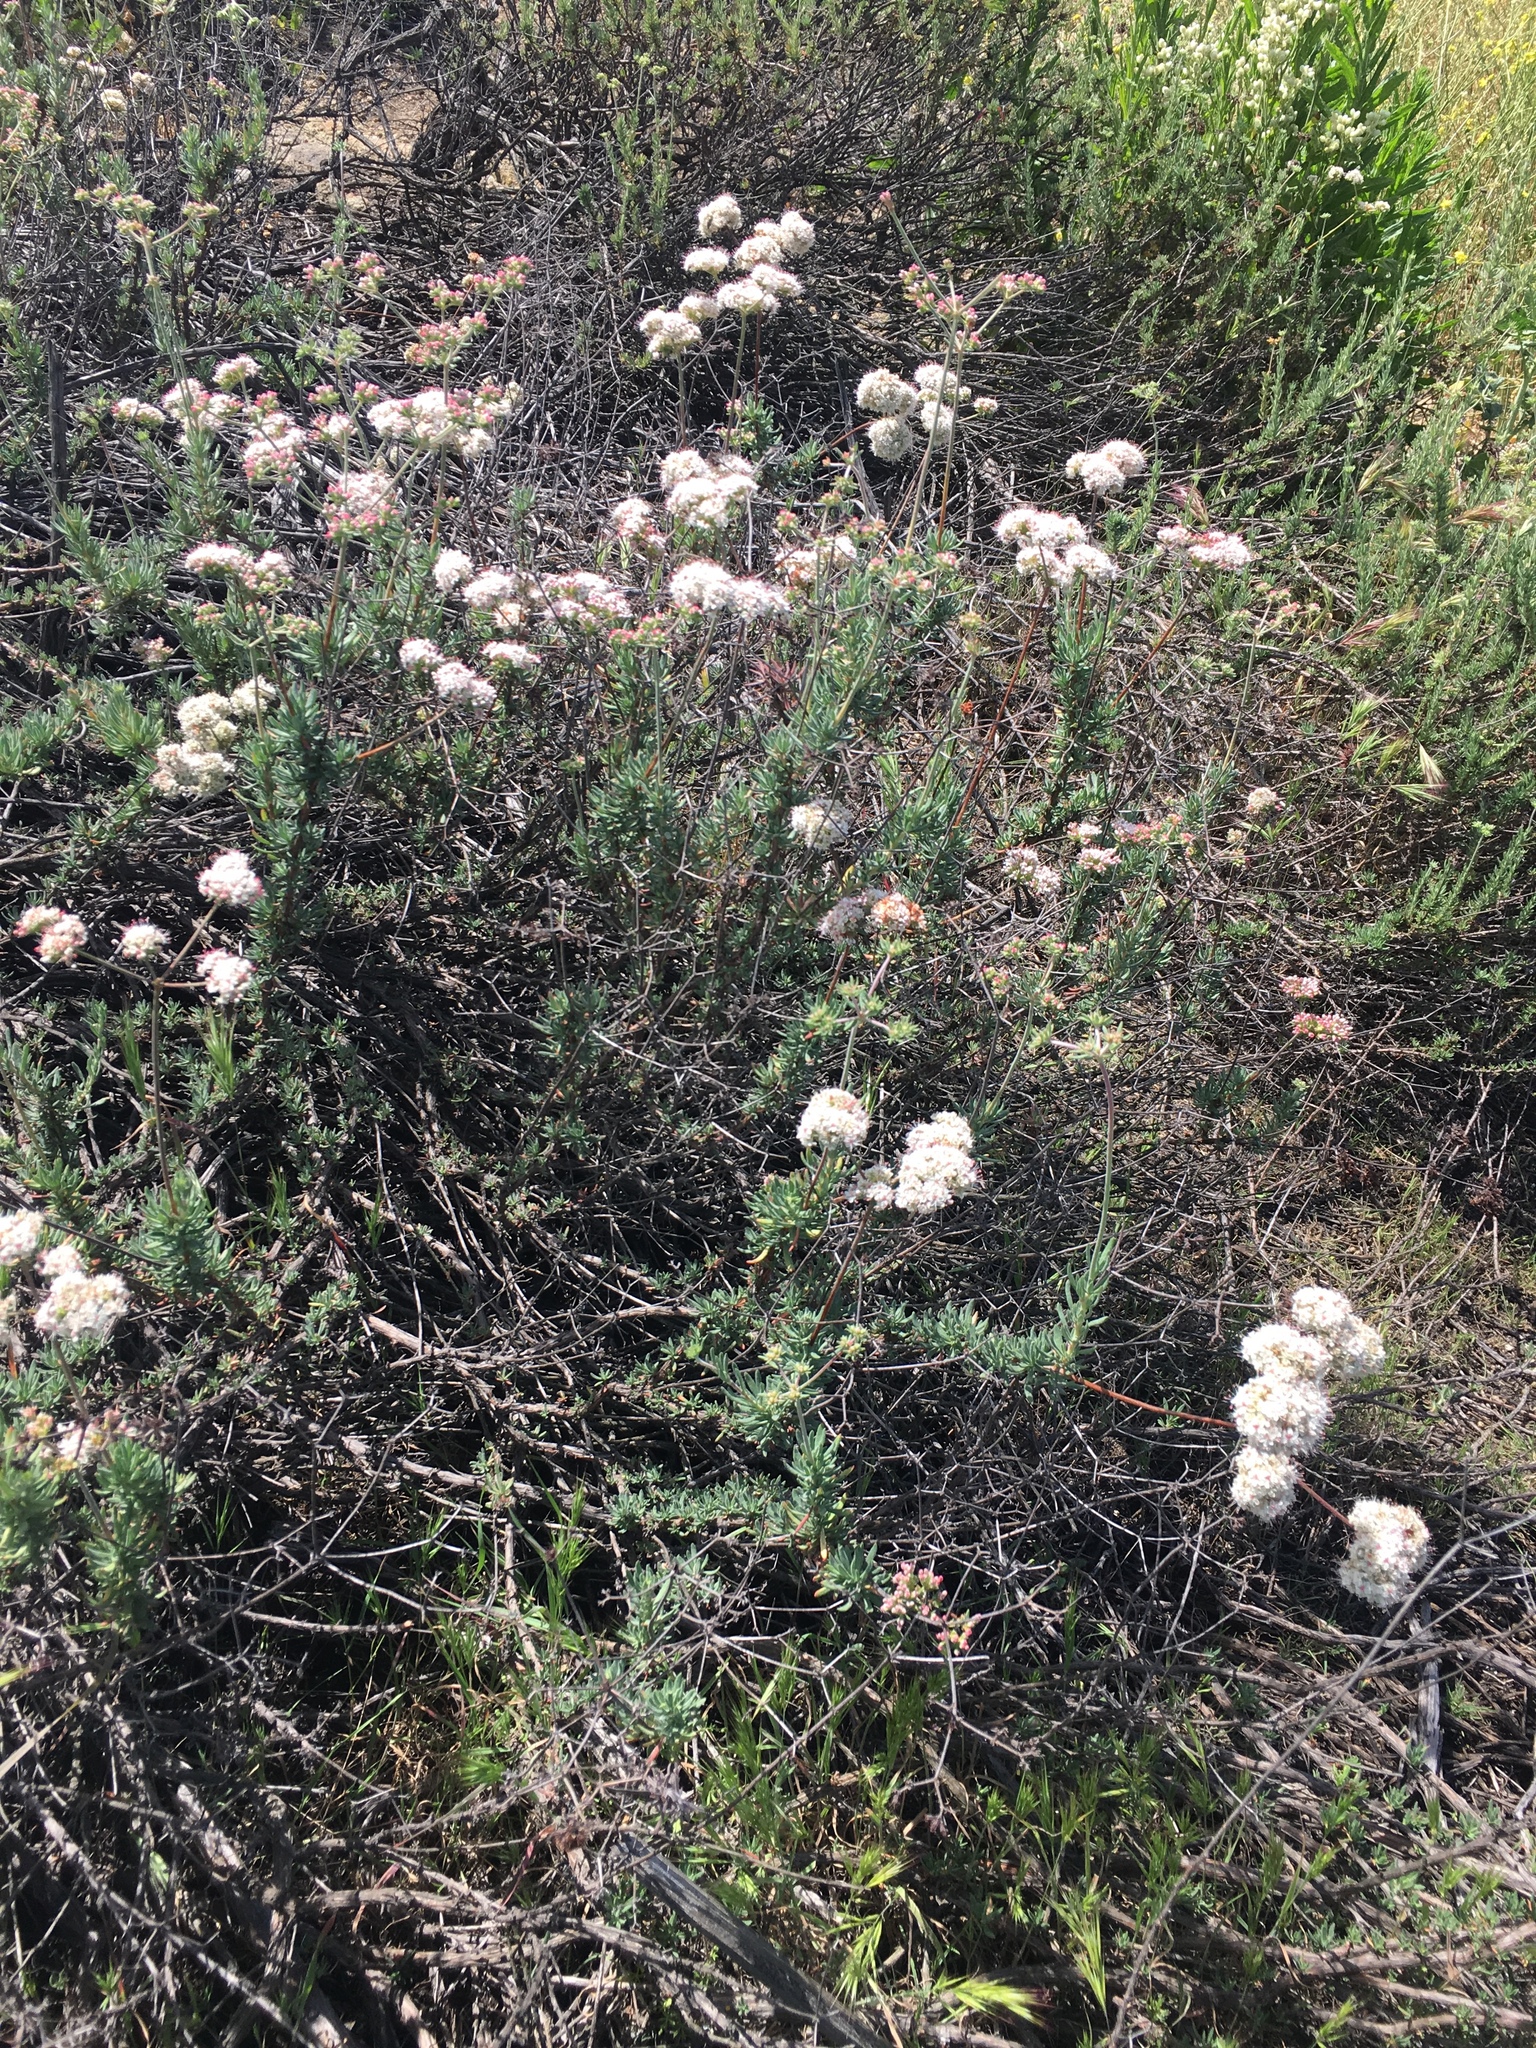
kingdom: Plantae
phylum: Tracheophyta
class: Magnoliopsida
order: Caryophyllales
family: Polygonaceae
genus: Eriogonum
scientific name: Eriogonum fasciculatum
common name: California wild buckwheat
